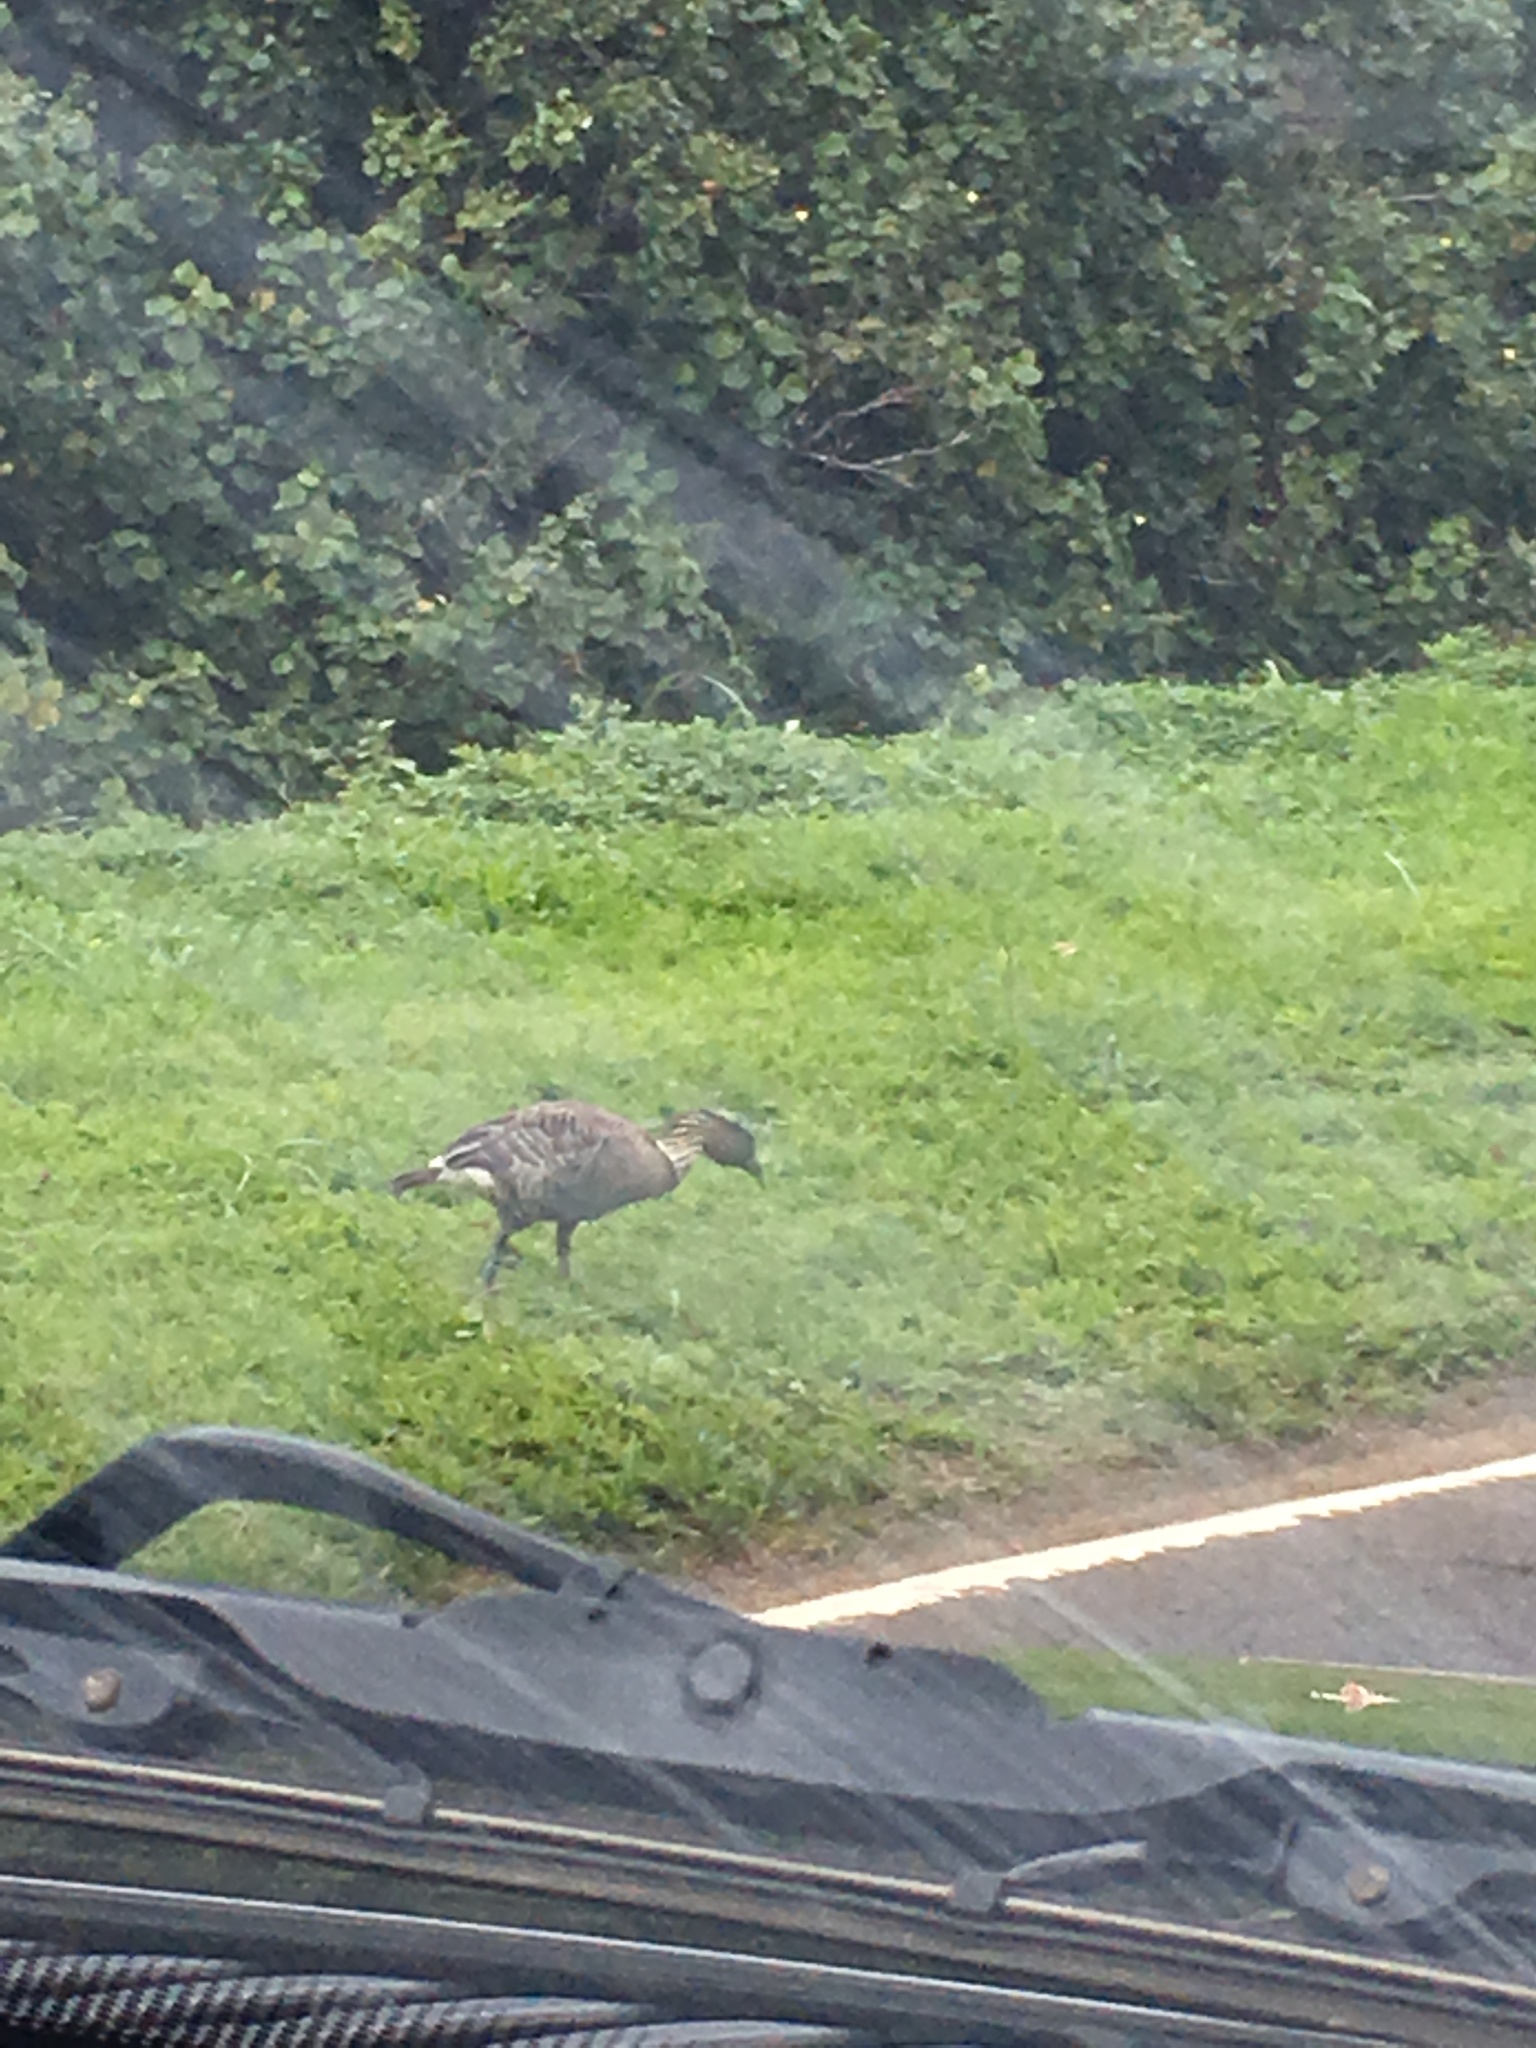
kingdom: Animalia
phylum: Chordata
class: Aves
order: Anseriformes
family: Anatidae
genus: Branta
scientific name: Branta sandvicensis
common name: Nene
